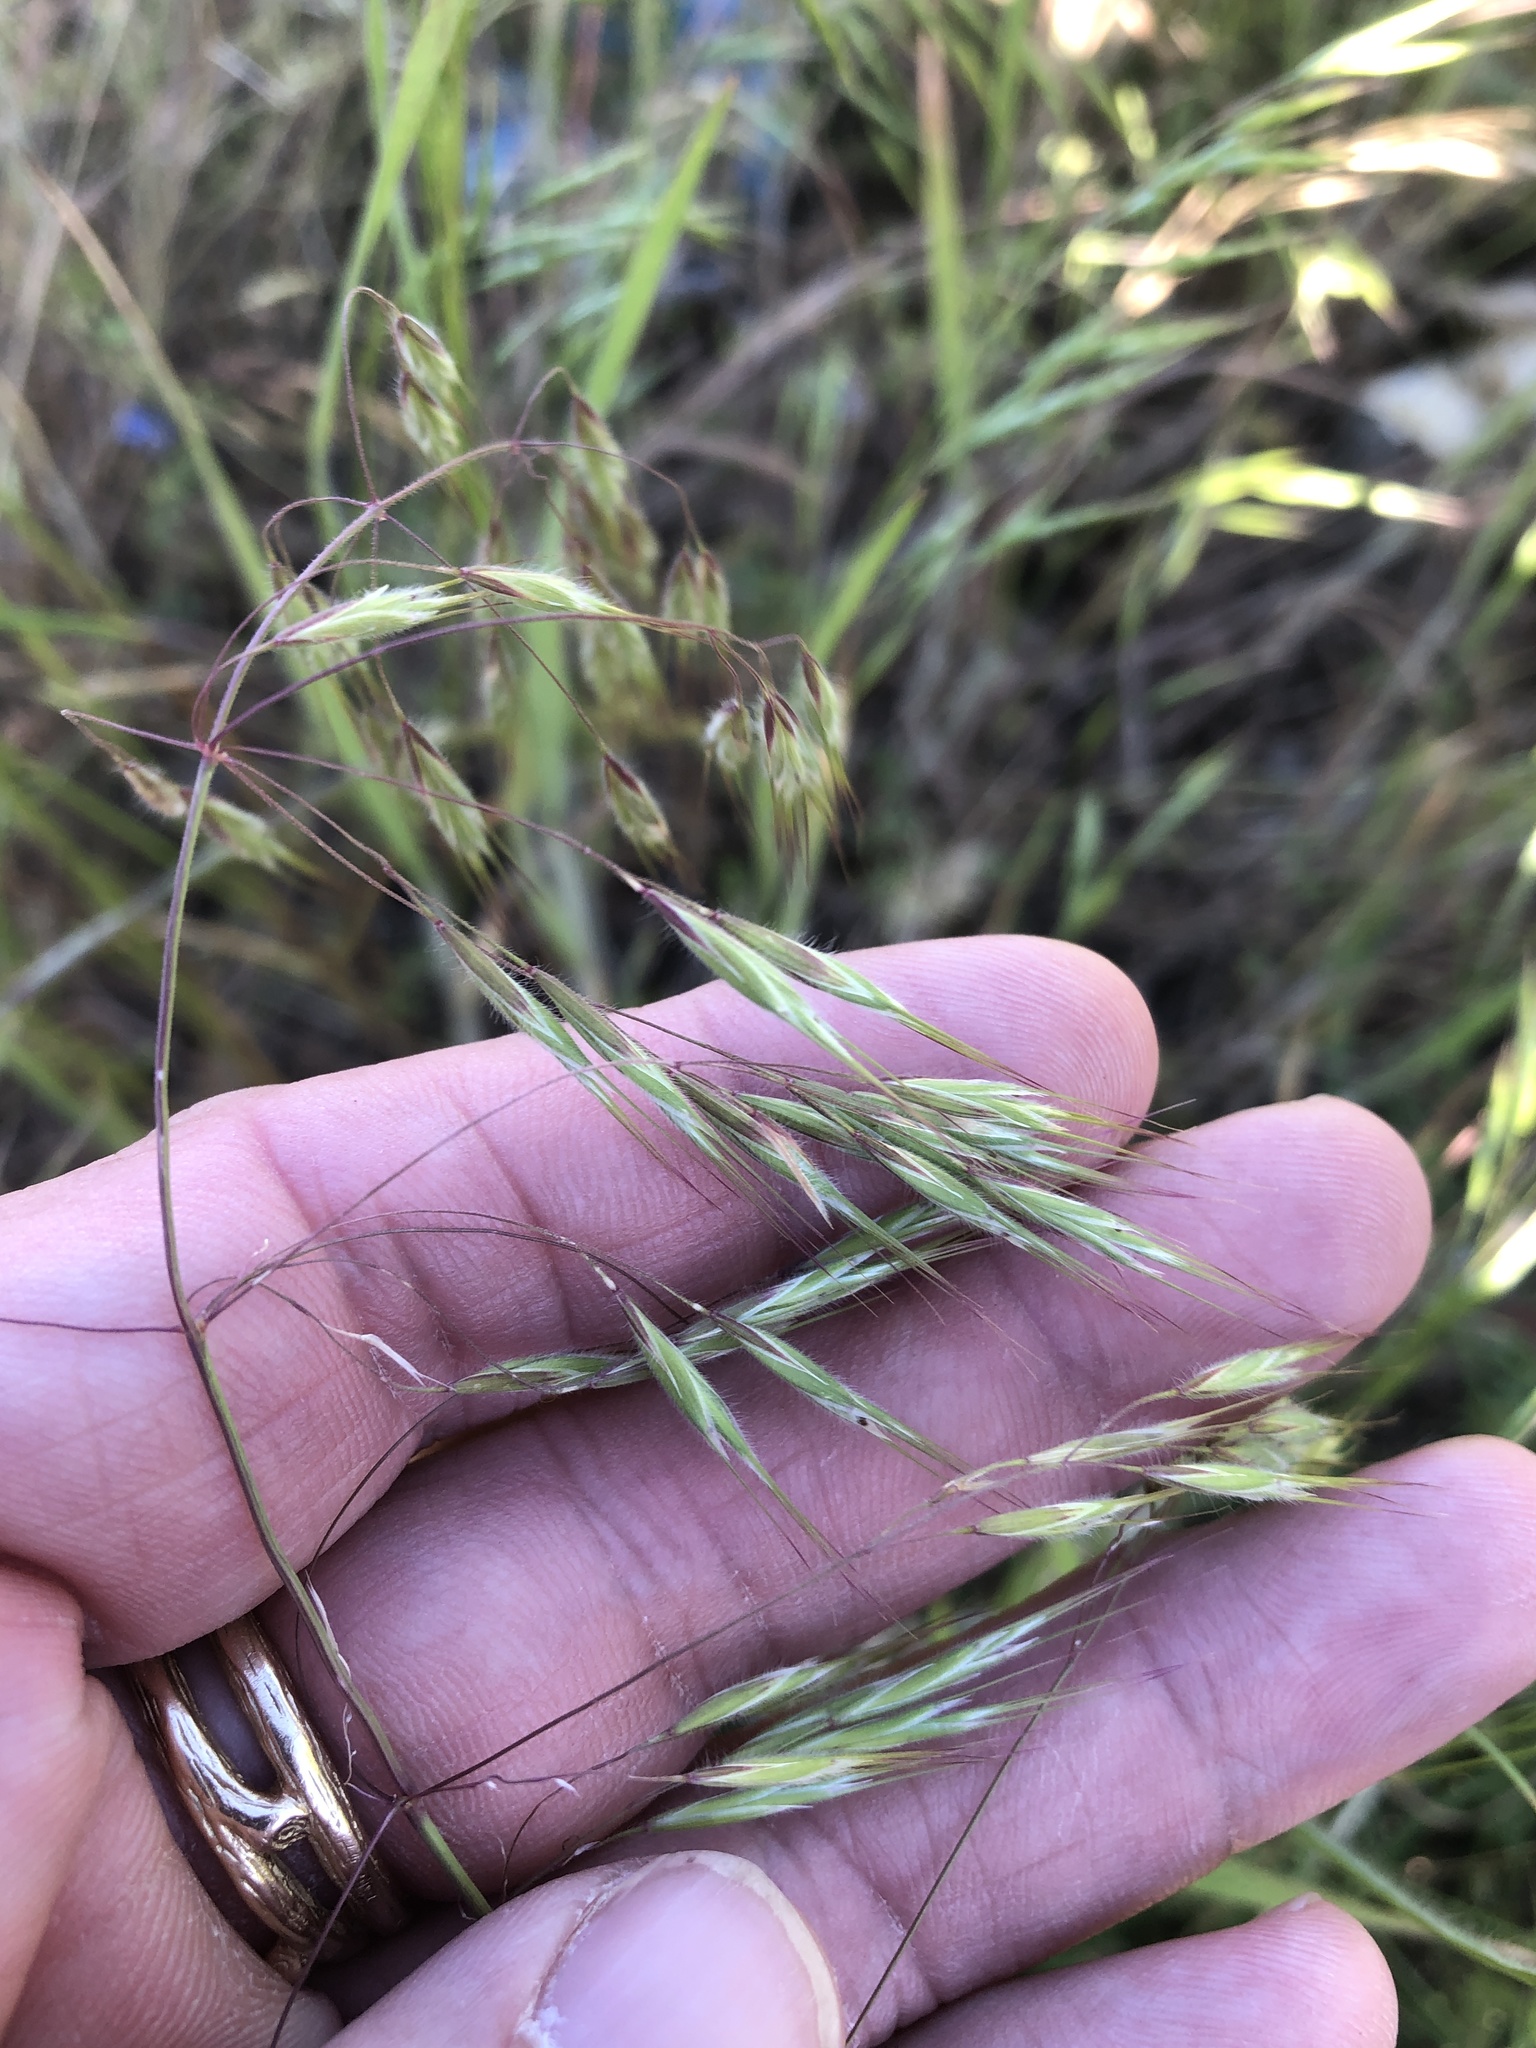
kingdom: Plantae
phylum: Tracheophyta
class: Liliopsida
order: Poales
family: Poaceae
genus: Bromus
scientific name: Bromus tectorum
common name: Cheatgrass
